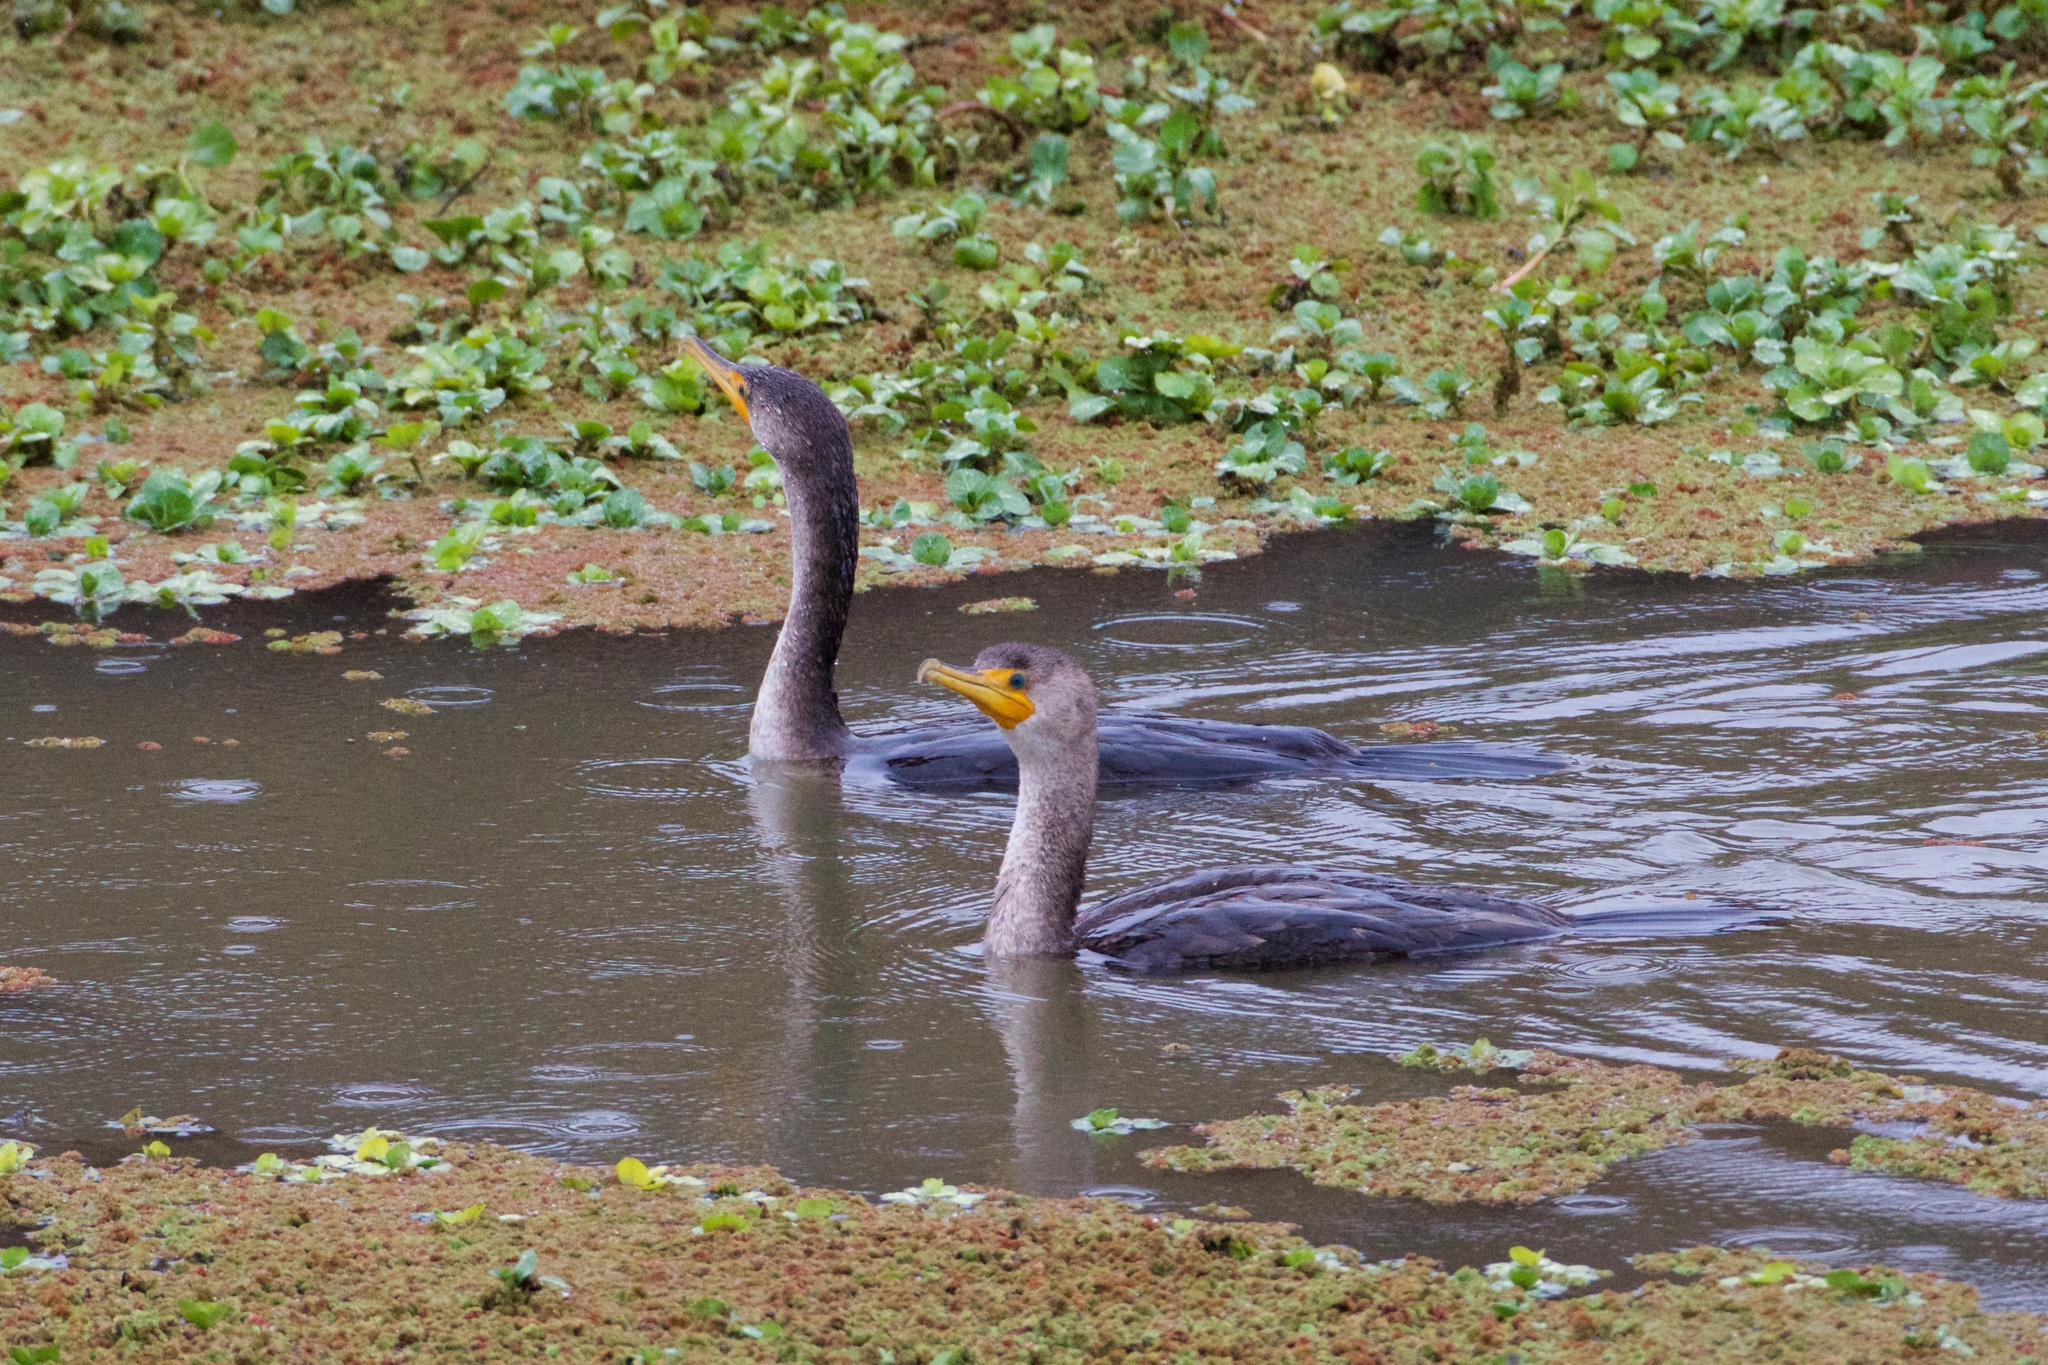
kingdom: Animalia
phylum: Chordata
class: Aves
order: Suliformes
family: Phalacrocoracidae
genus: Phalacrocorax
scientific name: Phalacrocorax auritus
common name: Double-crested cormorant
